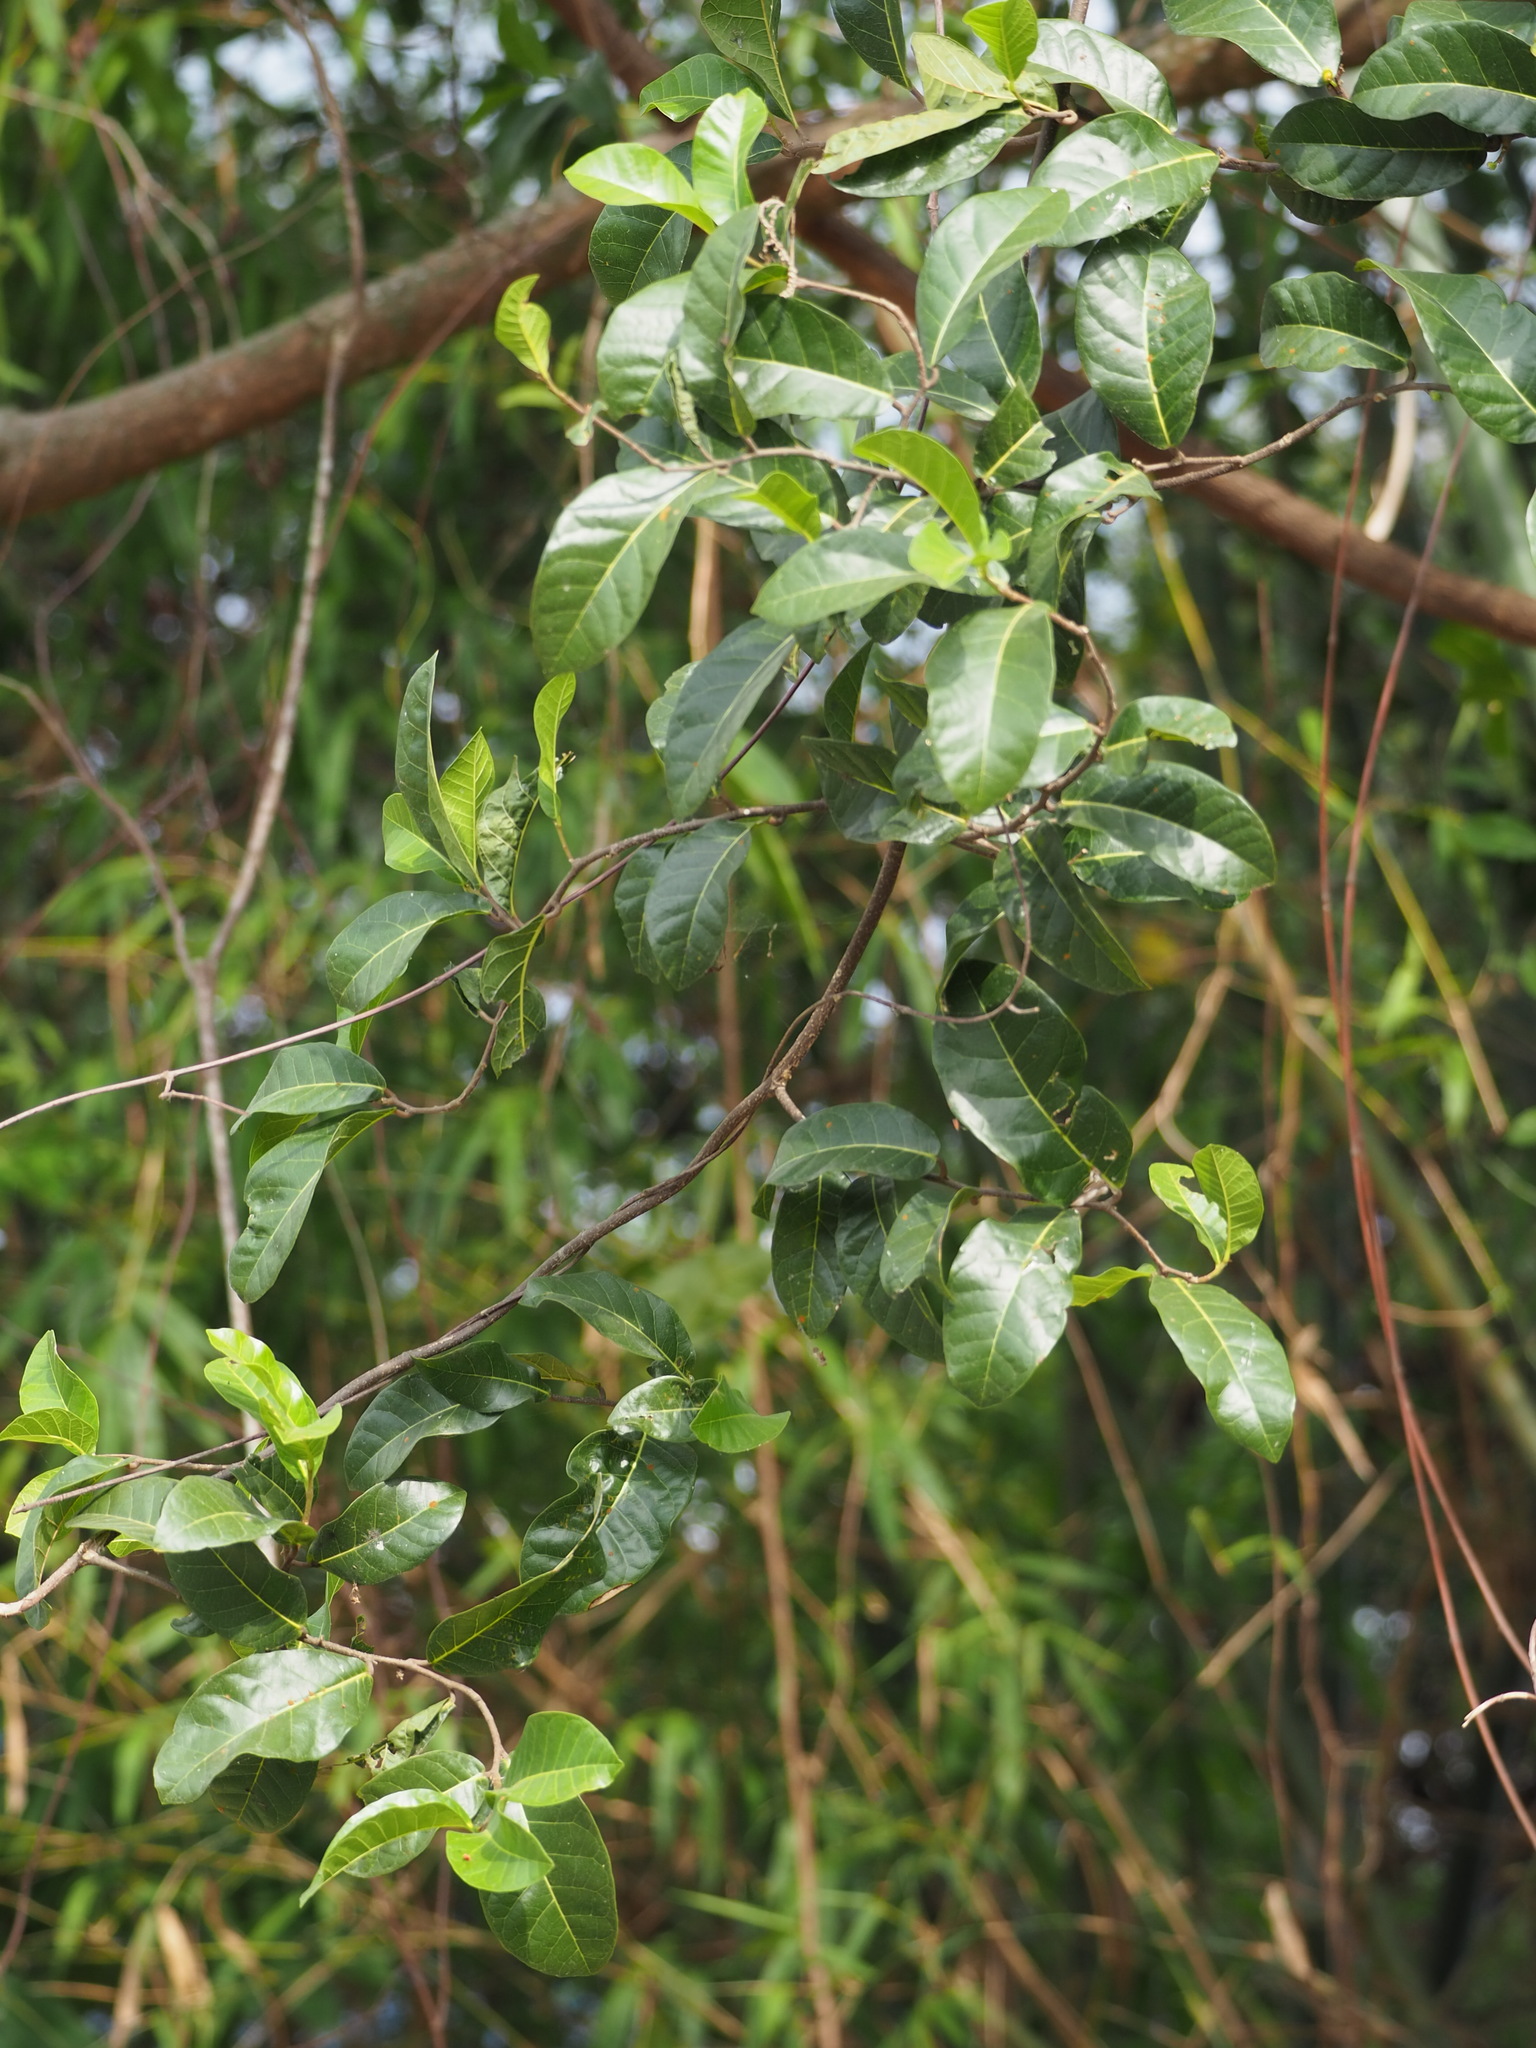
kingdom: Plantae
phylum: Tracheophyta
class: Magnoliopsida
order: Rosales
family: Moraceae
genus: Malaisia
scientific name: Malaisia scandens
